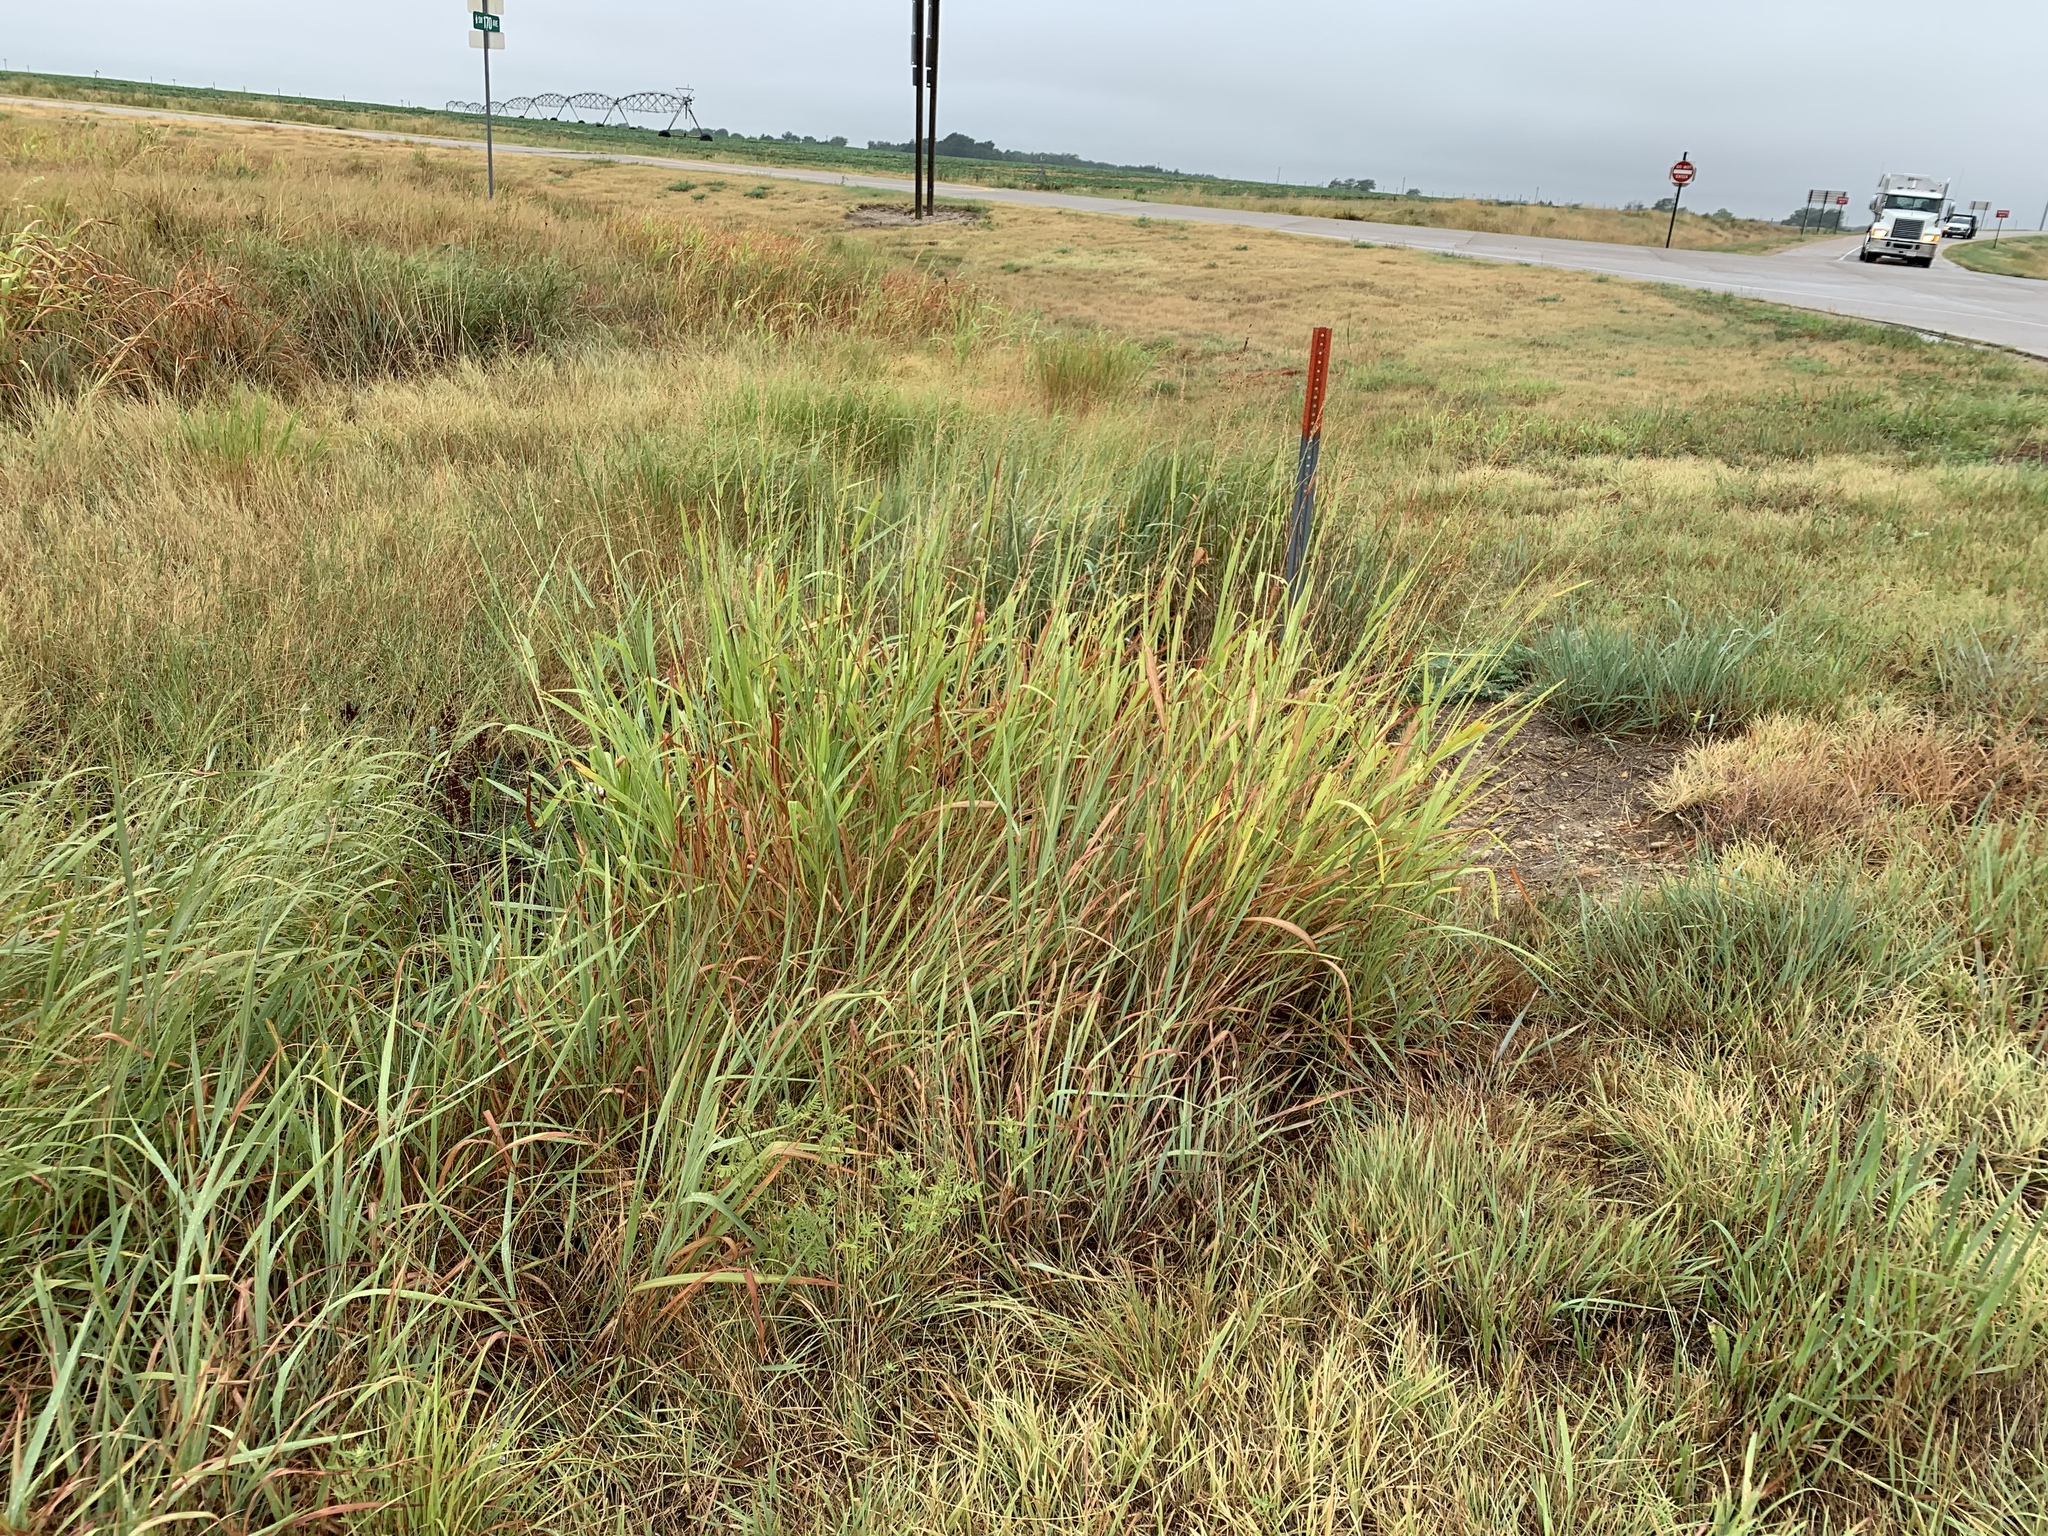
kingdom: Plantae
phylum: Tracheophyta
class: Liliopsida
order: Poales
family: Poaceae
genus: Sorghum
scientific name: Sorghum halepense
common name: Johnson-grass
